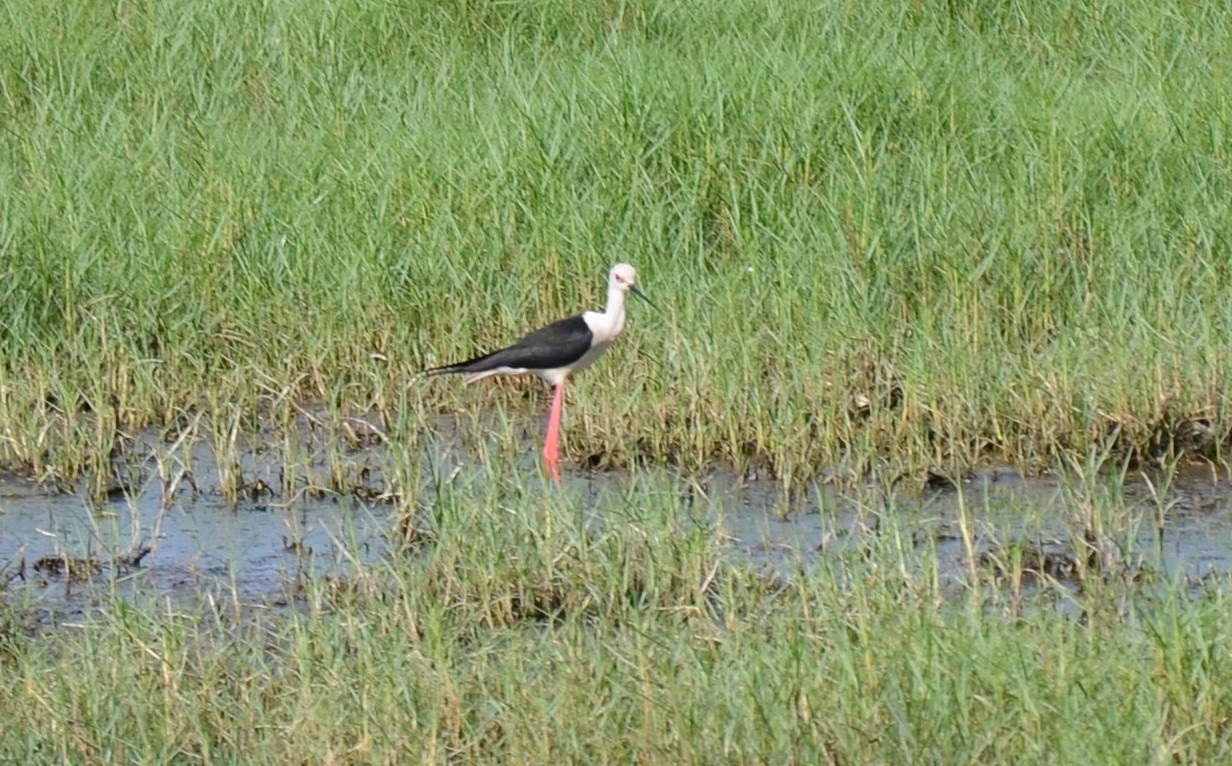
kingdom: Animalia
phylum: Chordata
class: Aves
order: Charadriiformes
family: Recurvirostridae
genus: Himantopus
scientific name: Himantopus himantopus
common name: Black-winged stilt
